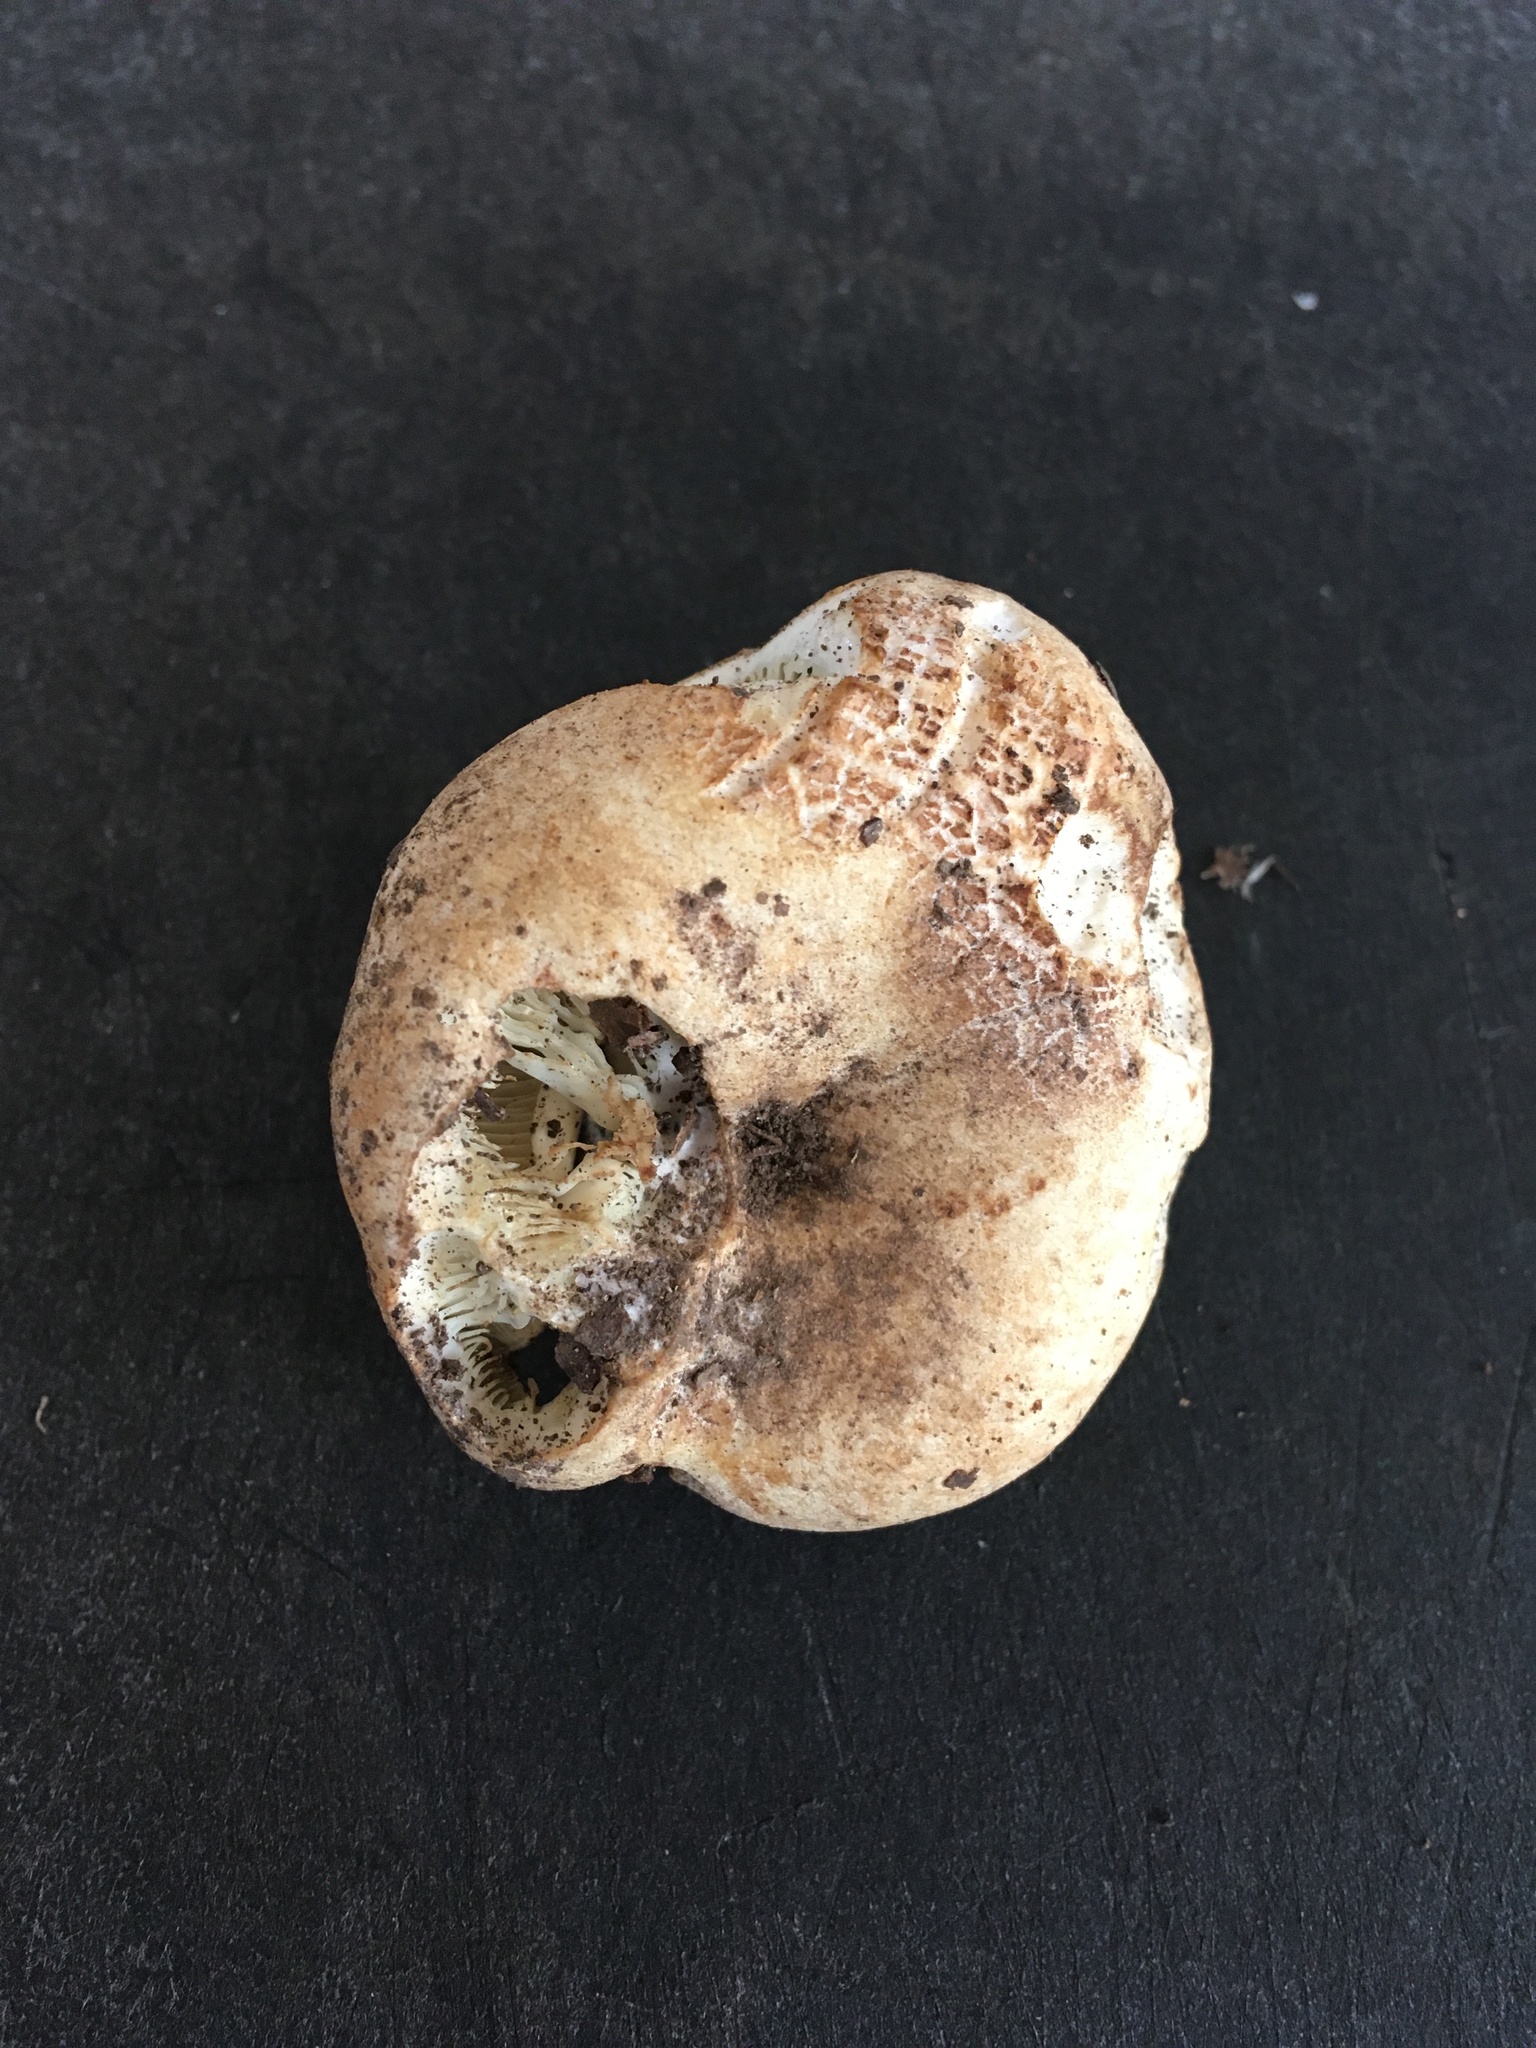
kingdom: Fungi
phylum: Basidiomycota
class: Agaricomycetes
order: Russulales
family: Russulaceae
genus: Russula
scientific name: Russula brevipes
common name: Short-stemmed russula
